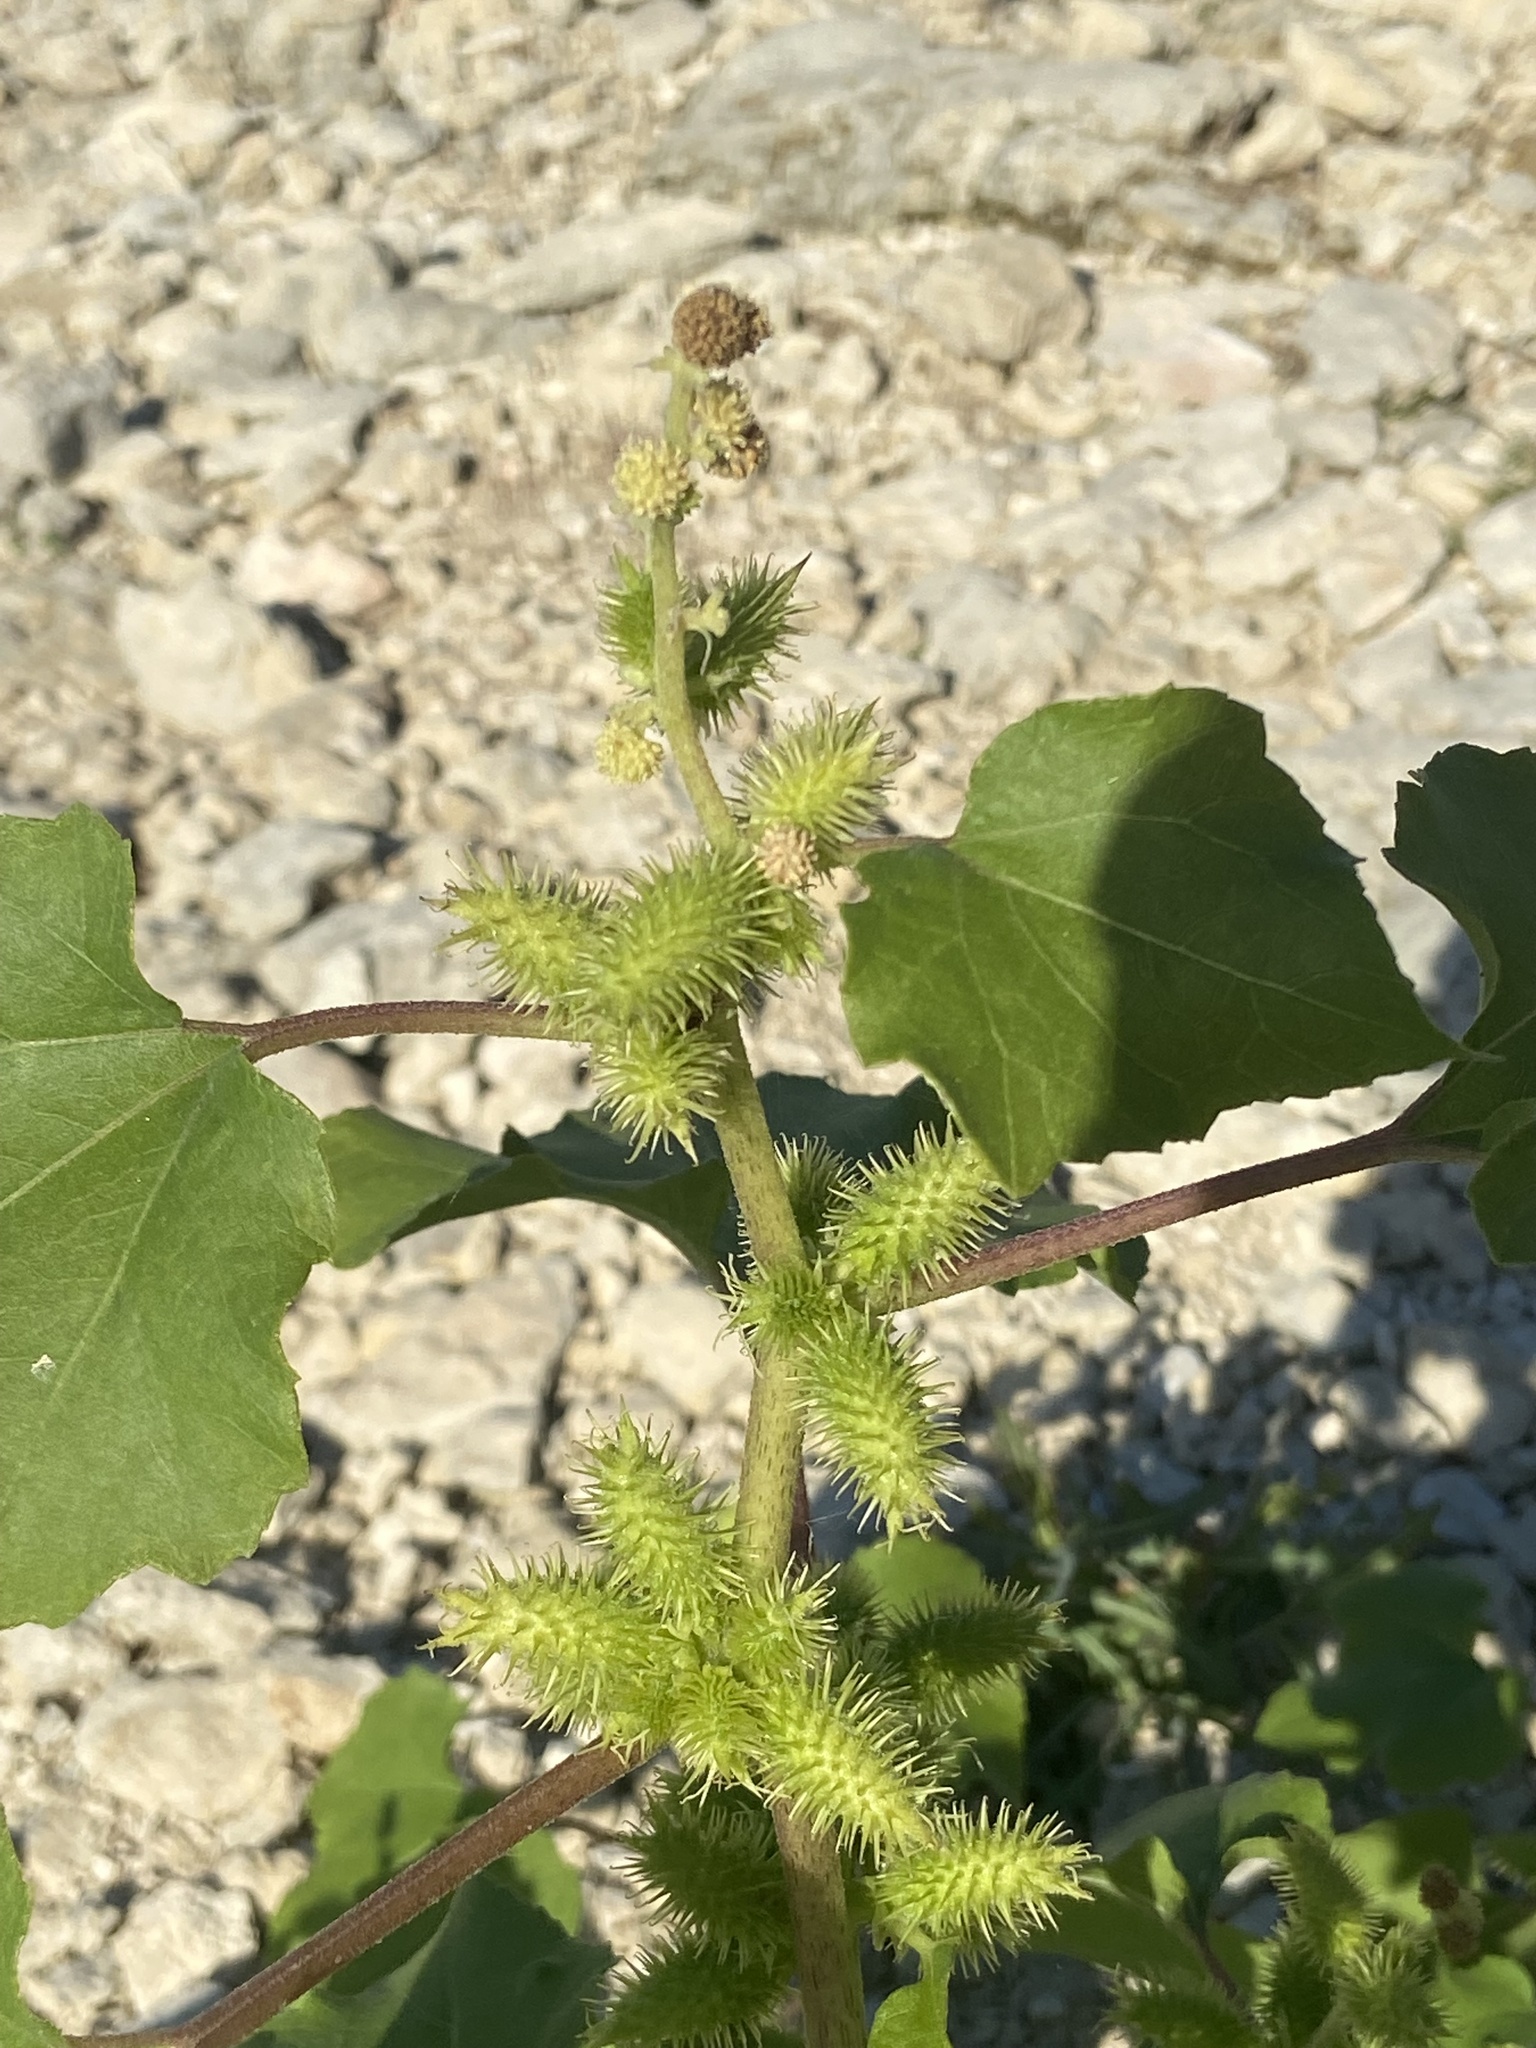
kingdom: Plantae
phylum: Tracheophyta
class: Magnoliopsida
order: Asterales
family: Asteraceae
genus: Xanthium
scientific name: Xanthium strumarium
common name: Rough cocklebur
